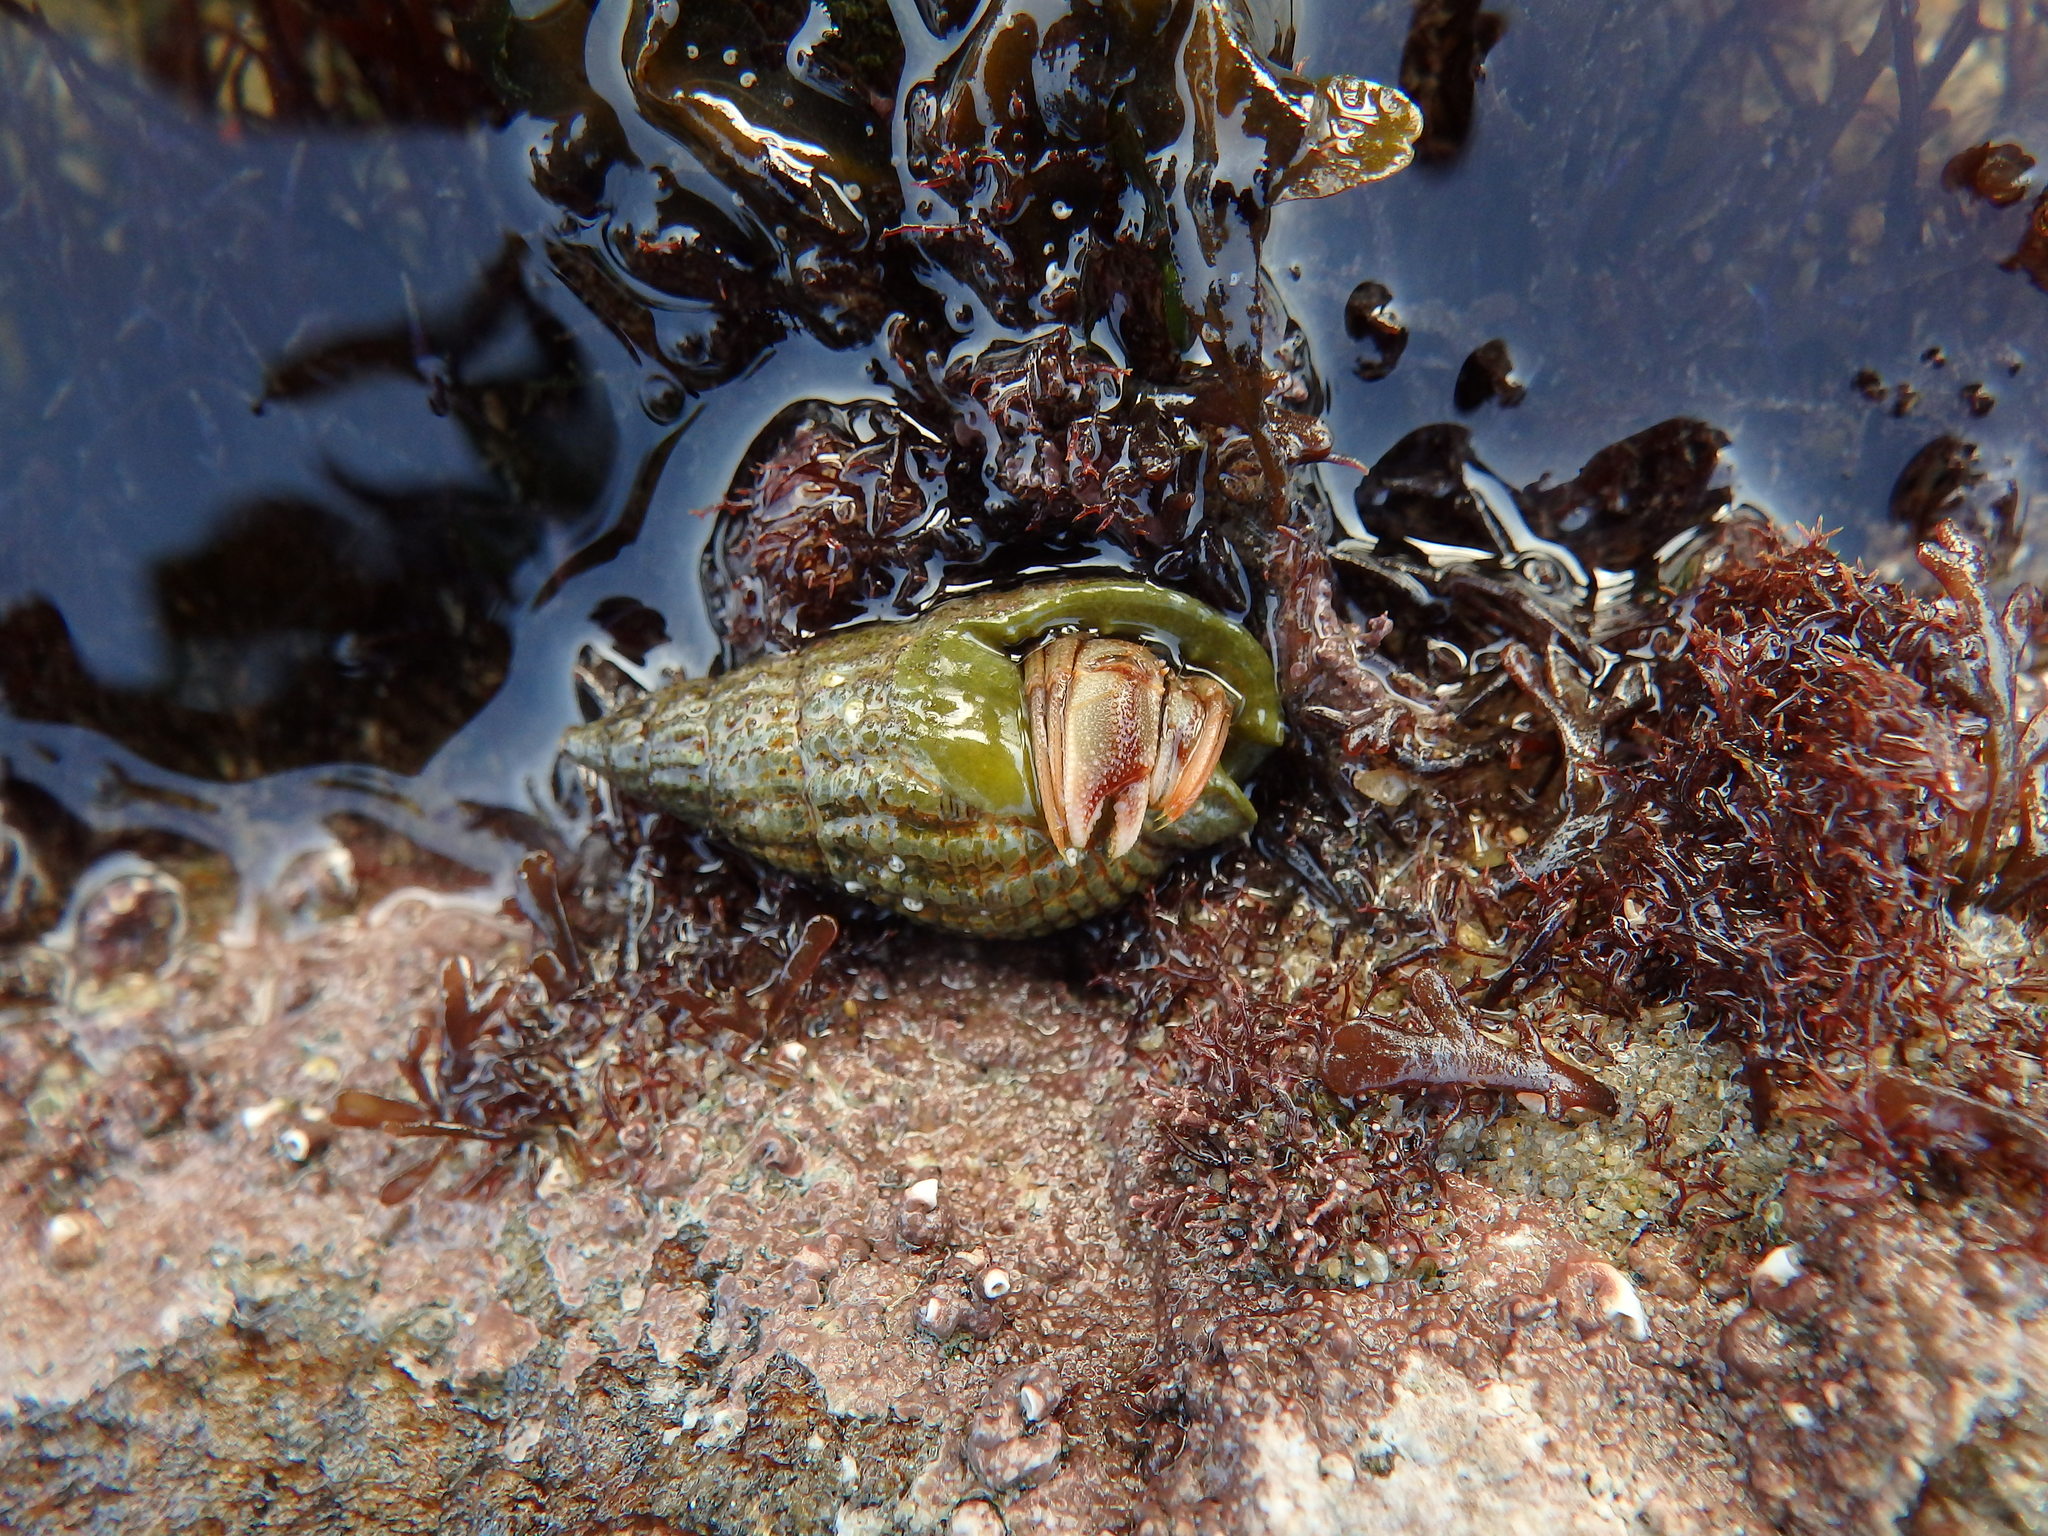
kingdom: Animalia
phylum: Arthropoda
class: Malacostraca
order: Decapoda
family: Paguridae
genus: Pagurus
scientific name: Pagurus bernhardus
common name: Hermit crab
